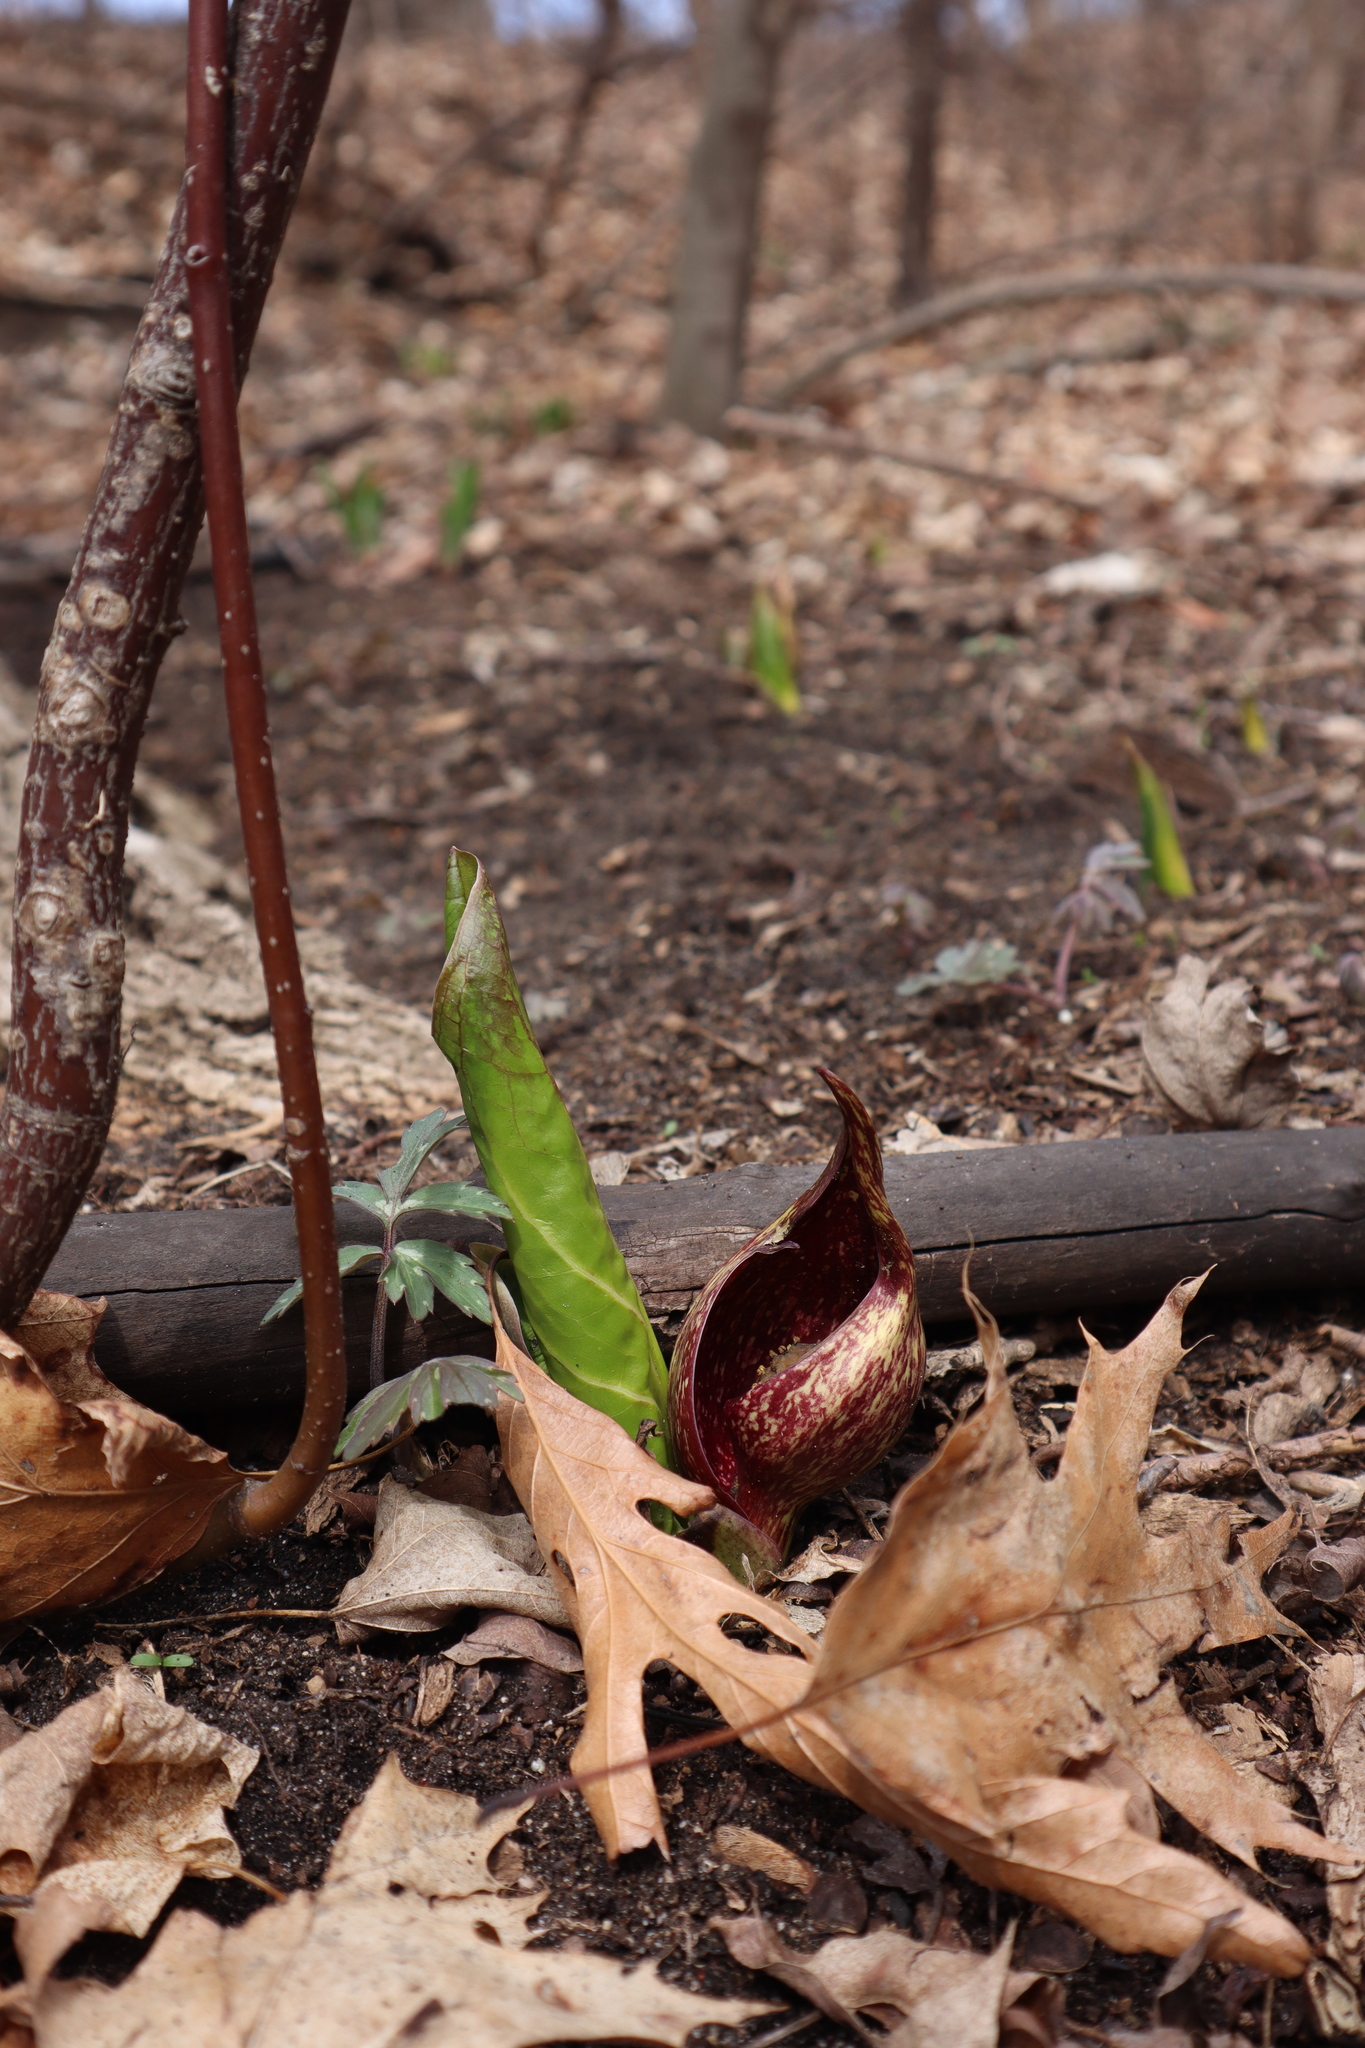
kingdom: Plantae
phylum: Tracheophyta
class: Liliopsida
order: Alismatales
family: Araceae
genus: Symplocarpus
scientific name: Symplocarpus foetidus
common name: Eastern skunk cabbage
